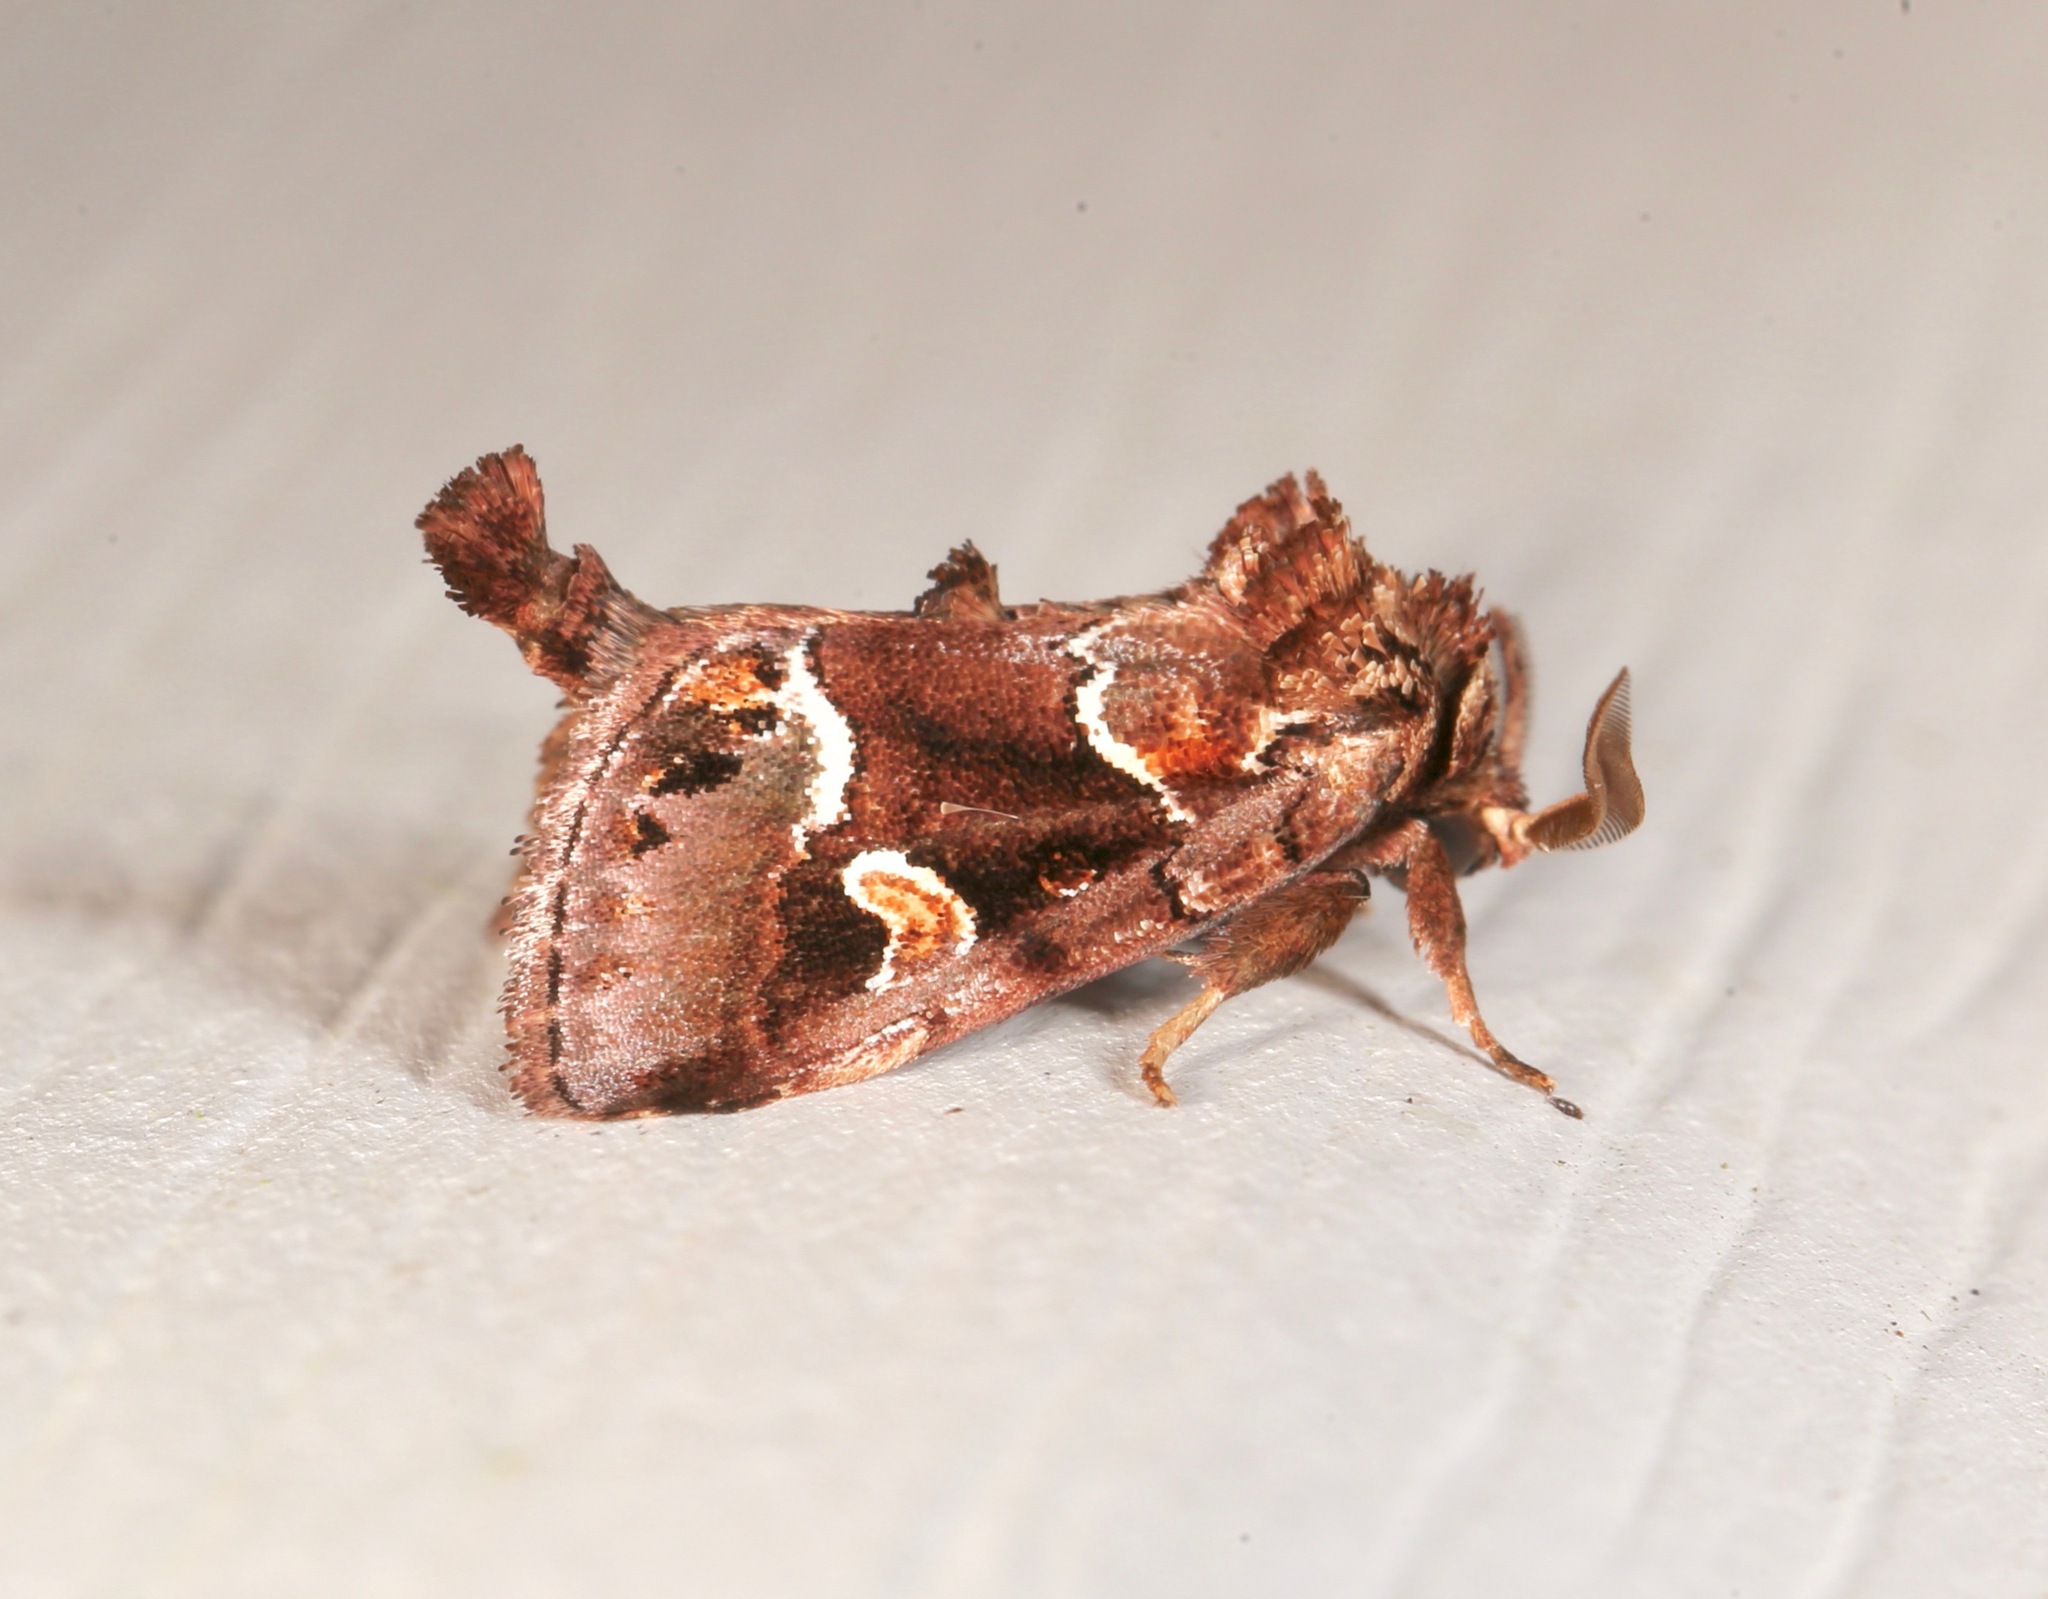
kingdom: Animalia
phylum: Arthropoda
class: Insecta
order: Lepidoptera
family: Noctuidae
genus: Acherdoa
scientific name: Acherdoa ferraria
